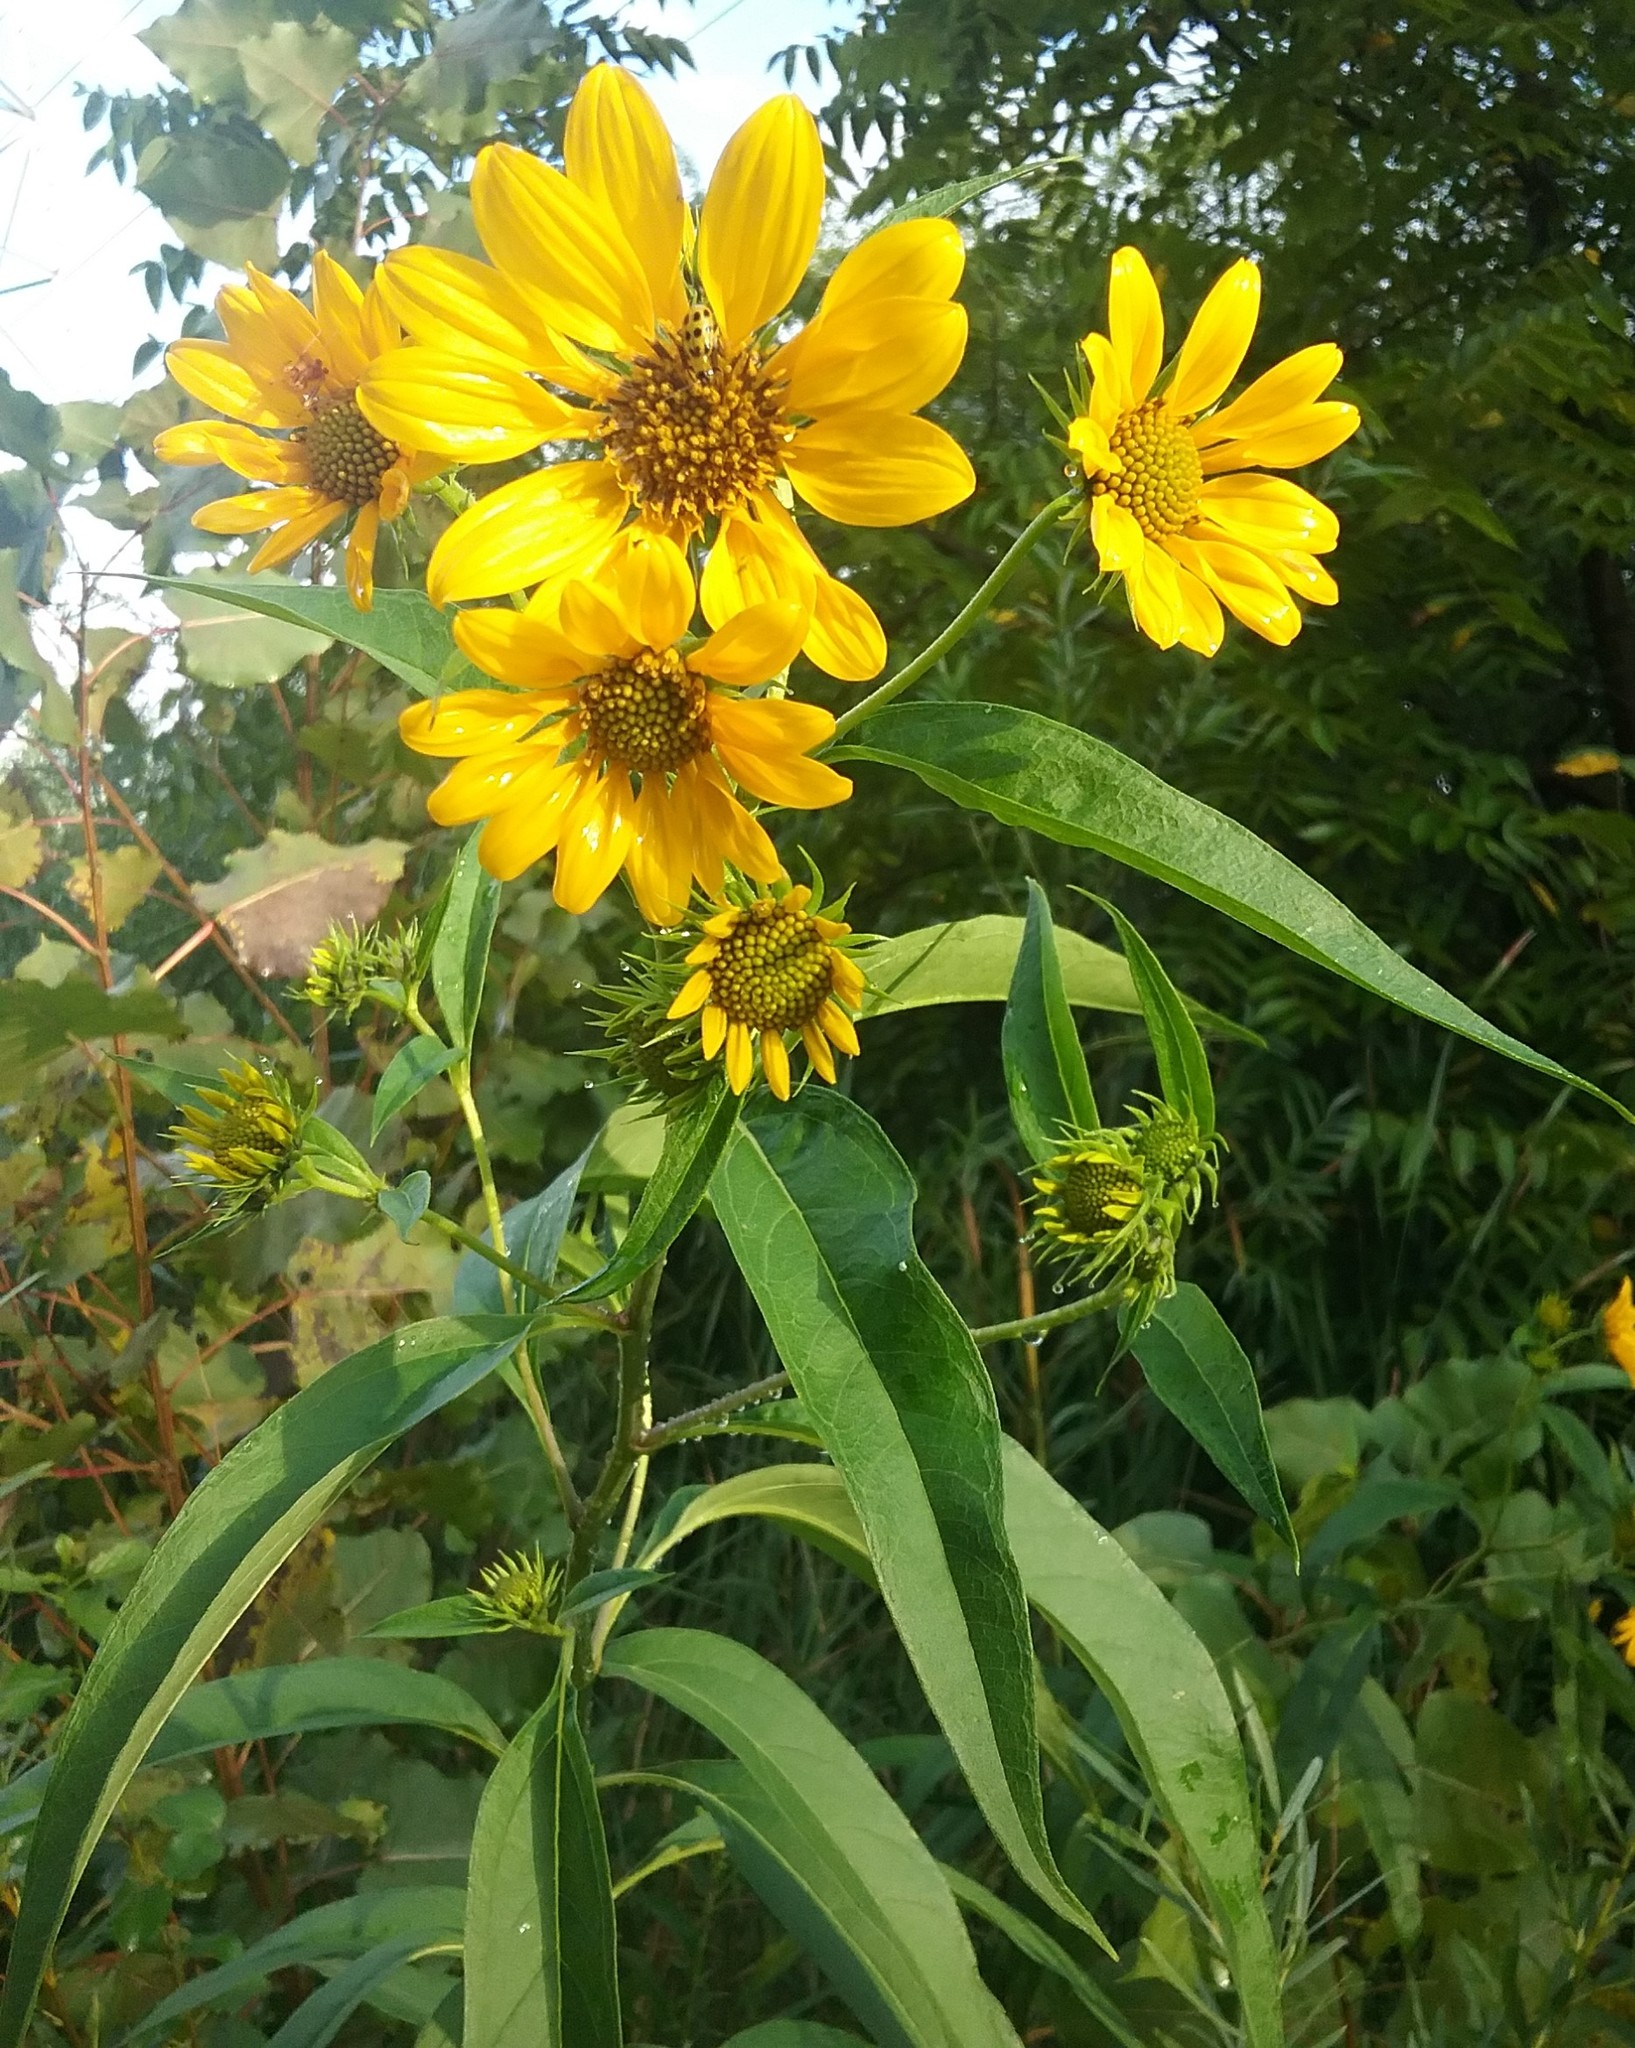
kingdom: Plantae
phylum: Tracheophyta
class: Magnoliopsida
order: Asterales
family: Asteraceae
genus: Helianthus
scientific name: Helianthus grosseserratus
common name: Sawtooth sunflower
